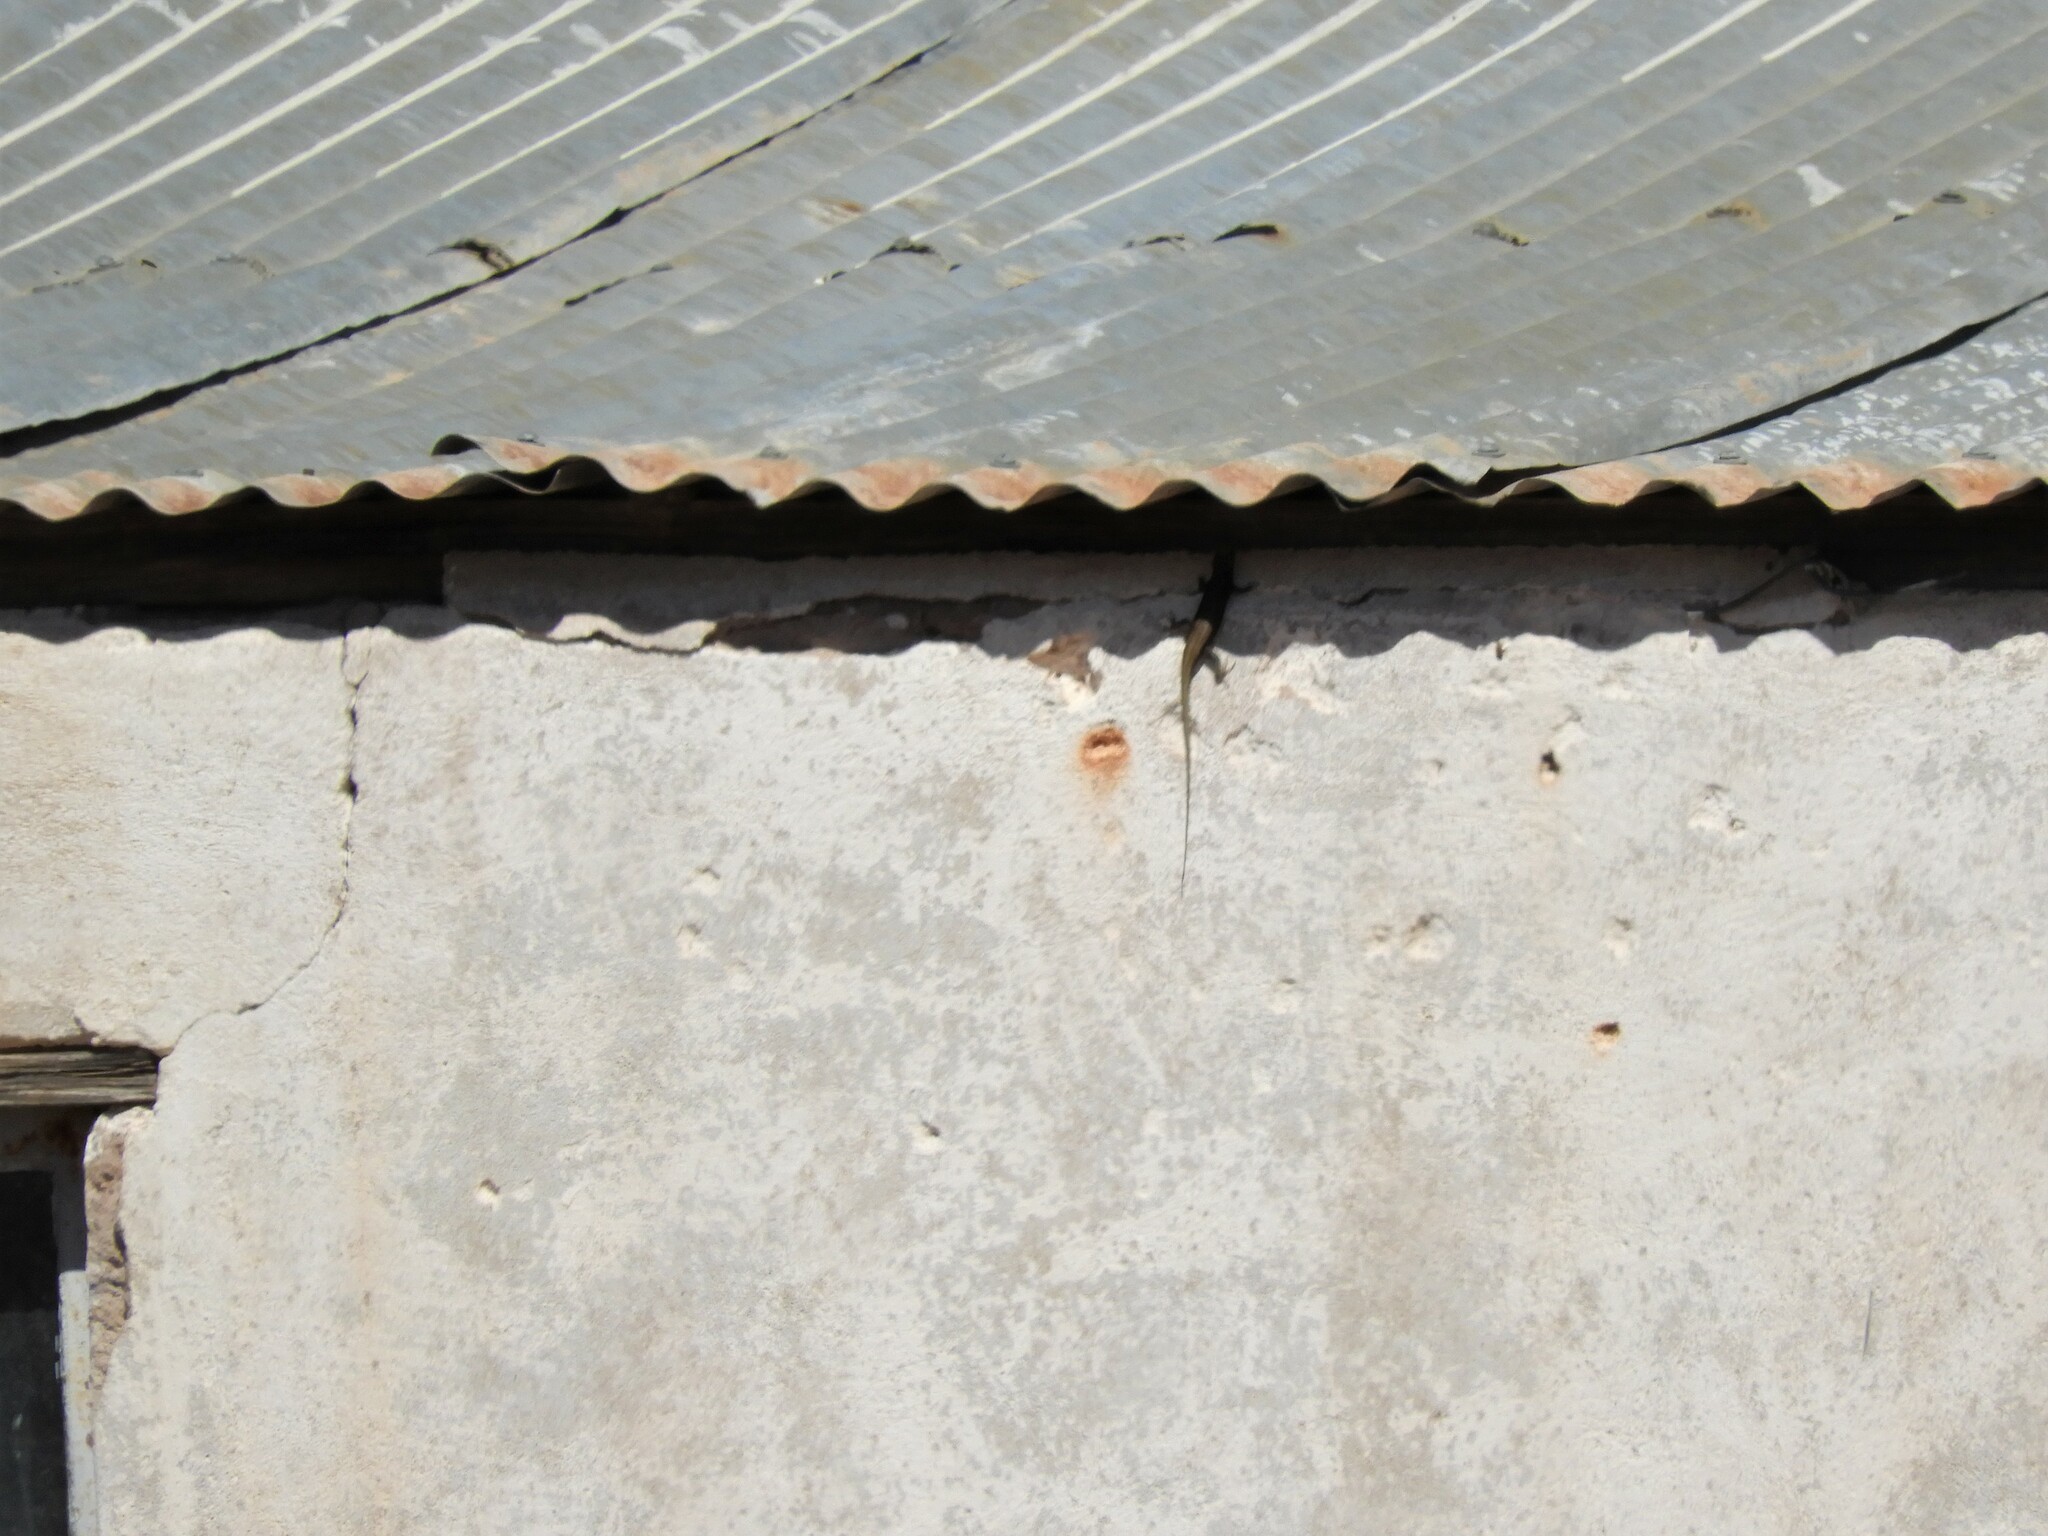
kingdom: Animalia
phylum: Chordata
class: Squamata
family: Scincidae
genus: Trachylepis
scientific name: Trachylepis sulcata
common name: Western rock skink
